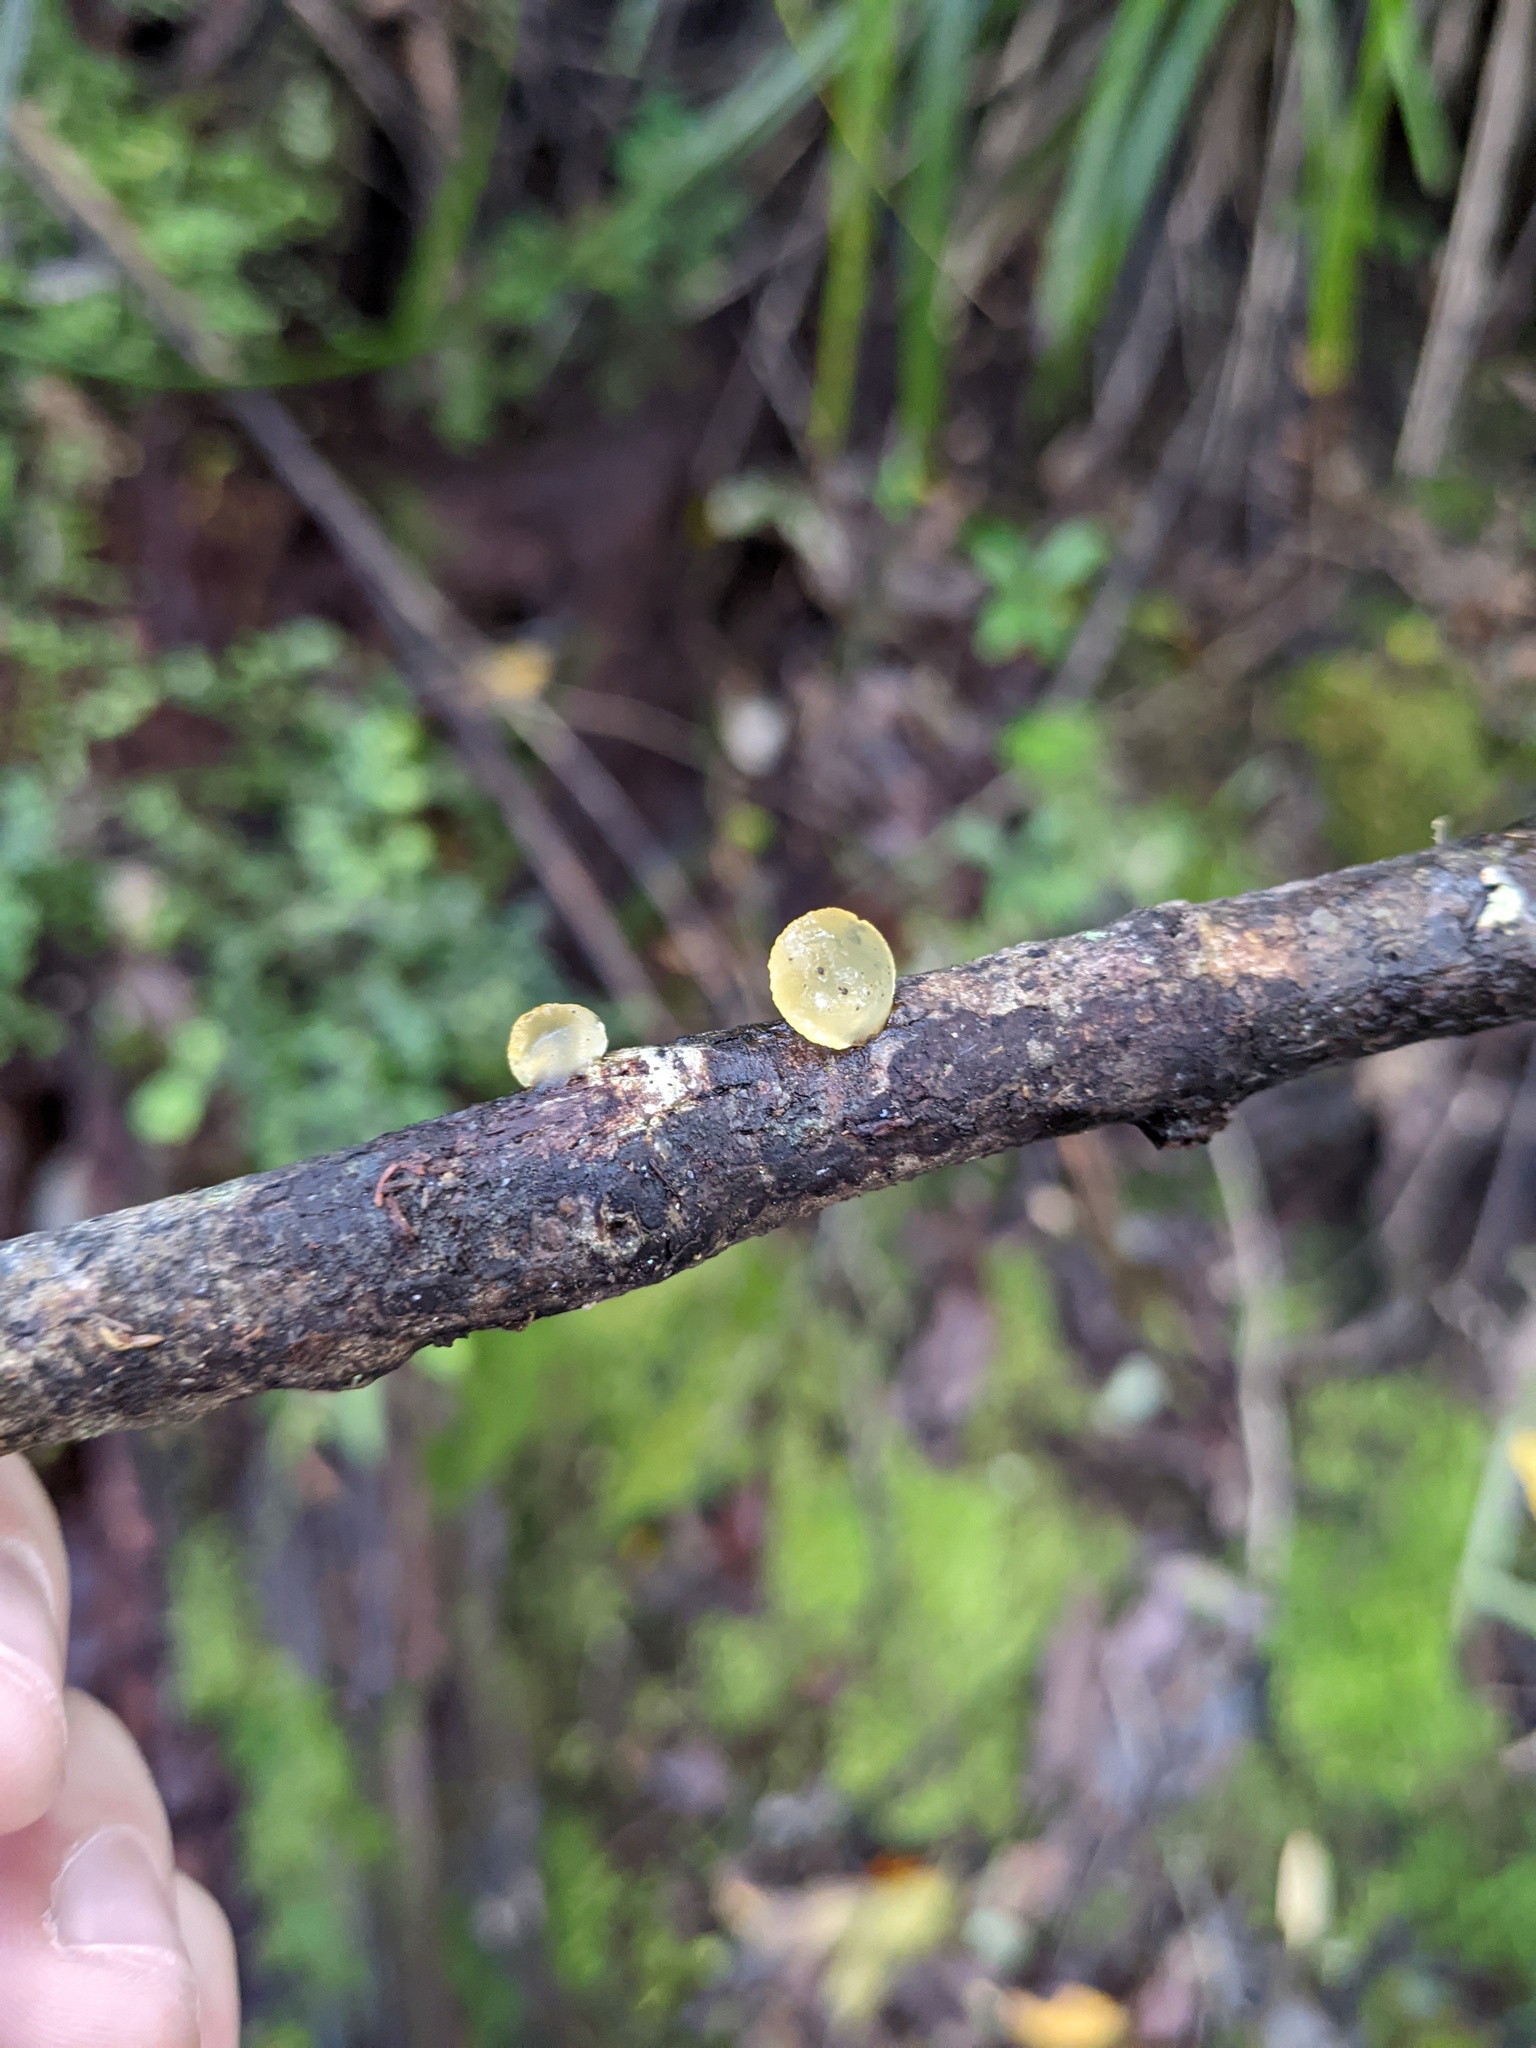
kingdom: Fungi
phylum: Basidiomycota
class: Dacrymycetes
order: Dacrymycetales
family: Dacrymycetaceae
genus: Heterotextus
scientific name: Heterotextus miltinus
